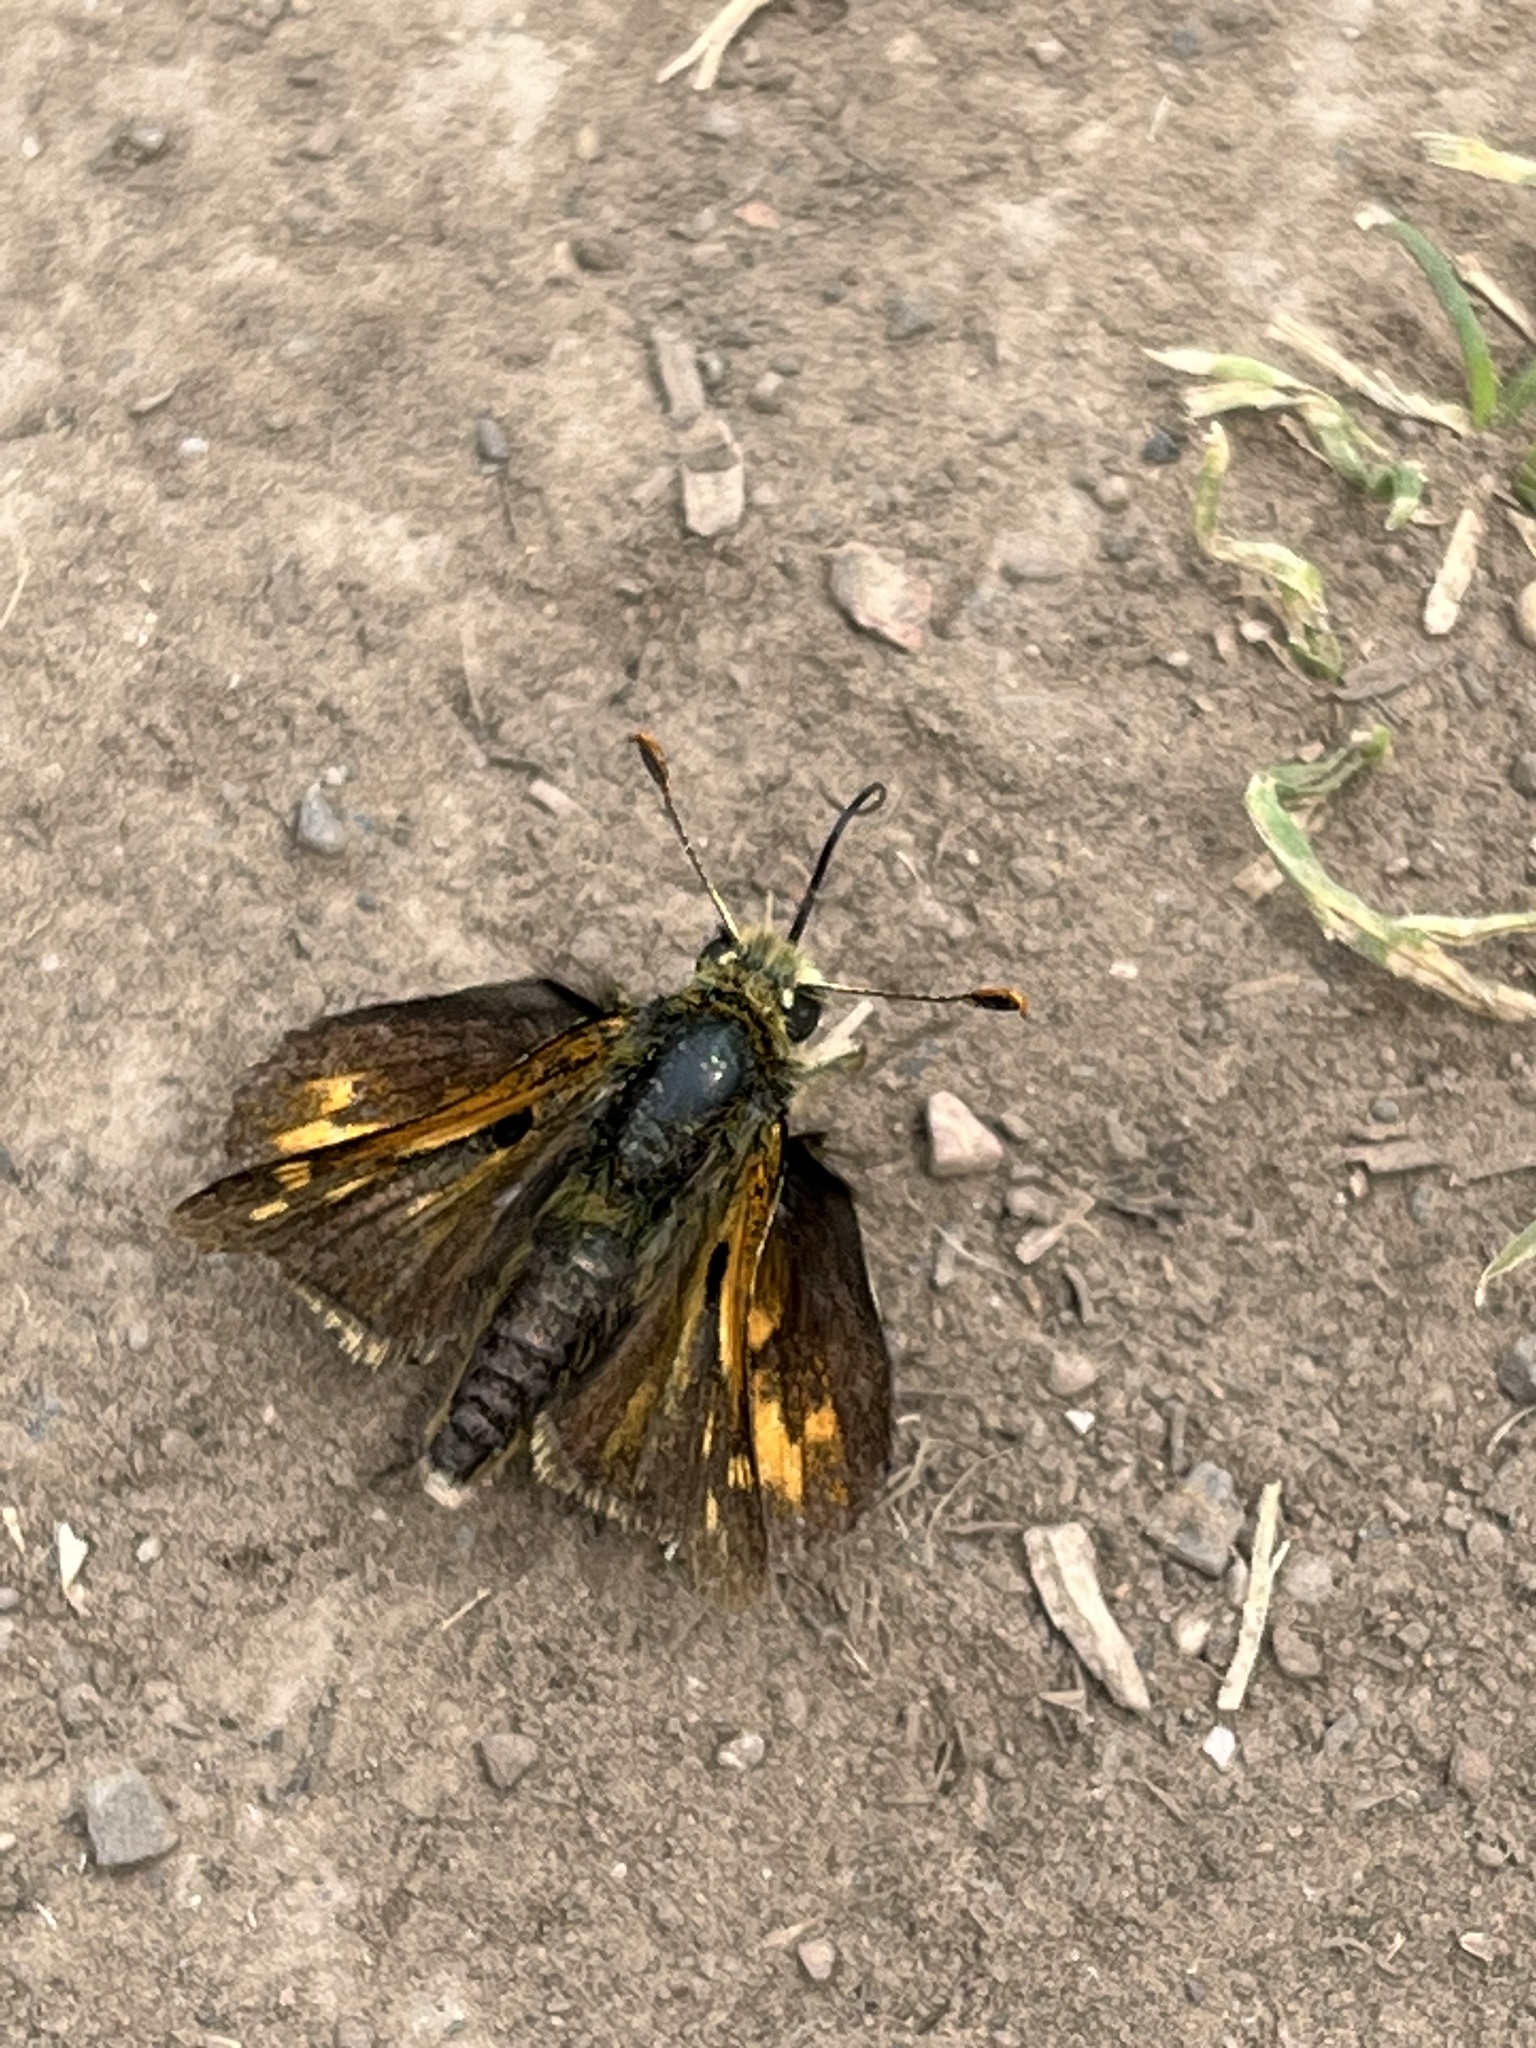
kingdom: Animalia
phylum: Arthropoda
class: Insecta
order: Lepidoptera
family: Hesperiidae
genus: Polites
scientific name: Polites sabuleti
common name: Sandhill skipper
